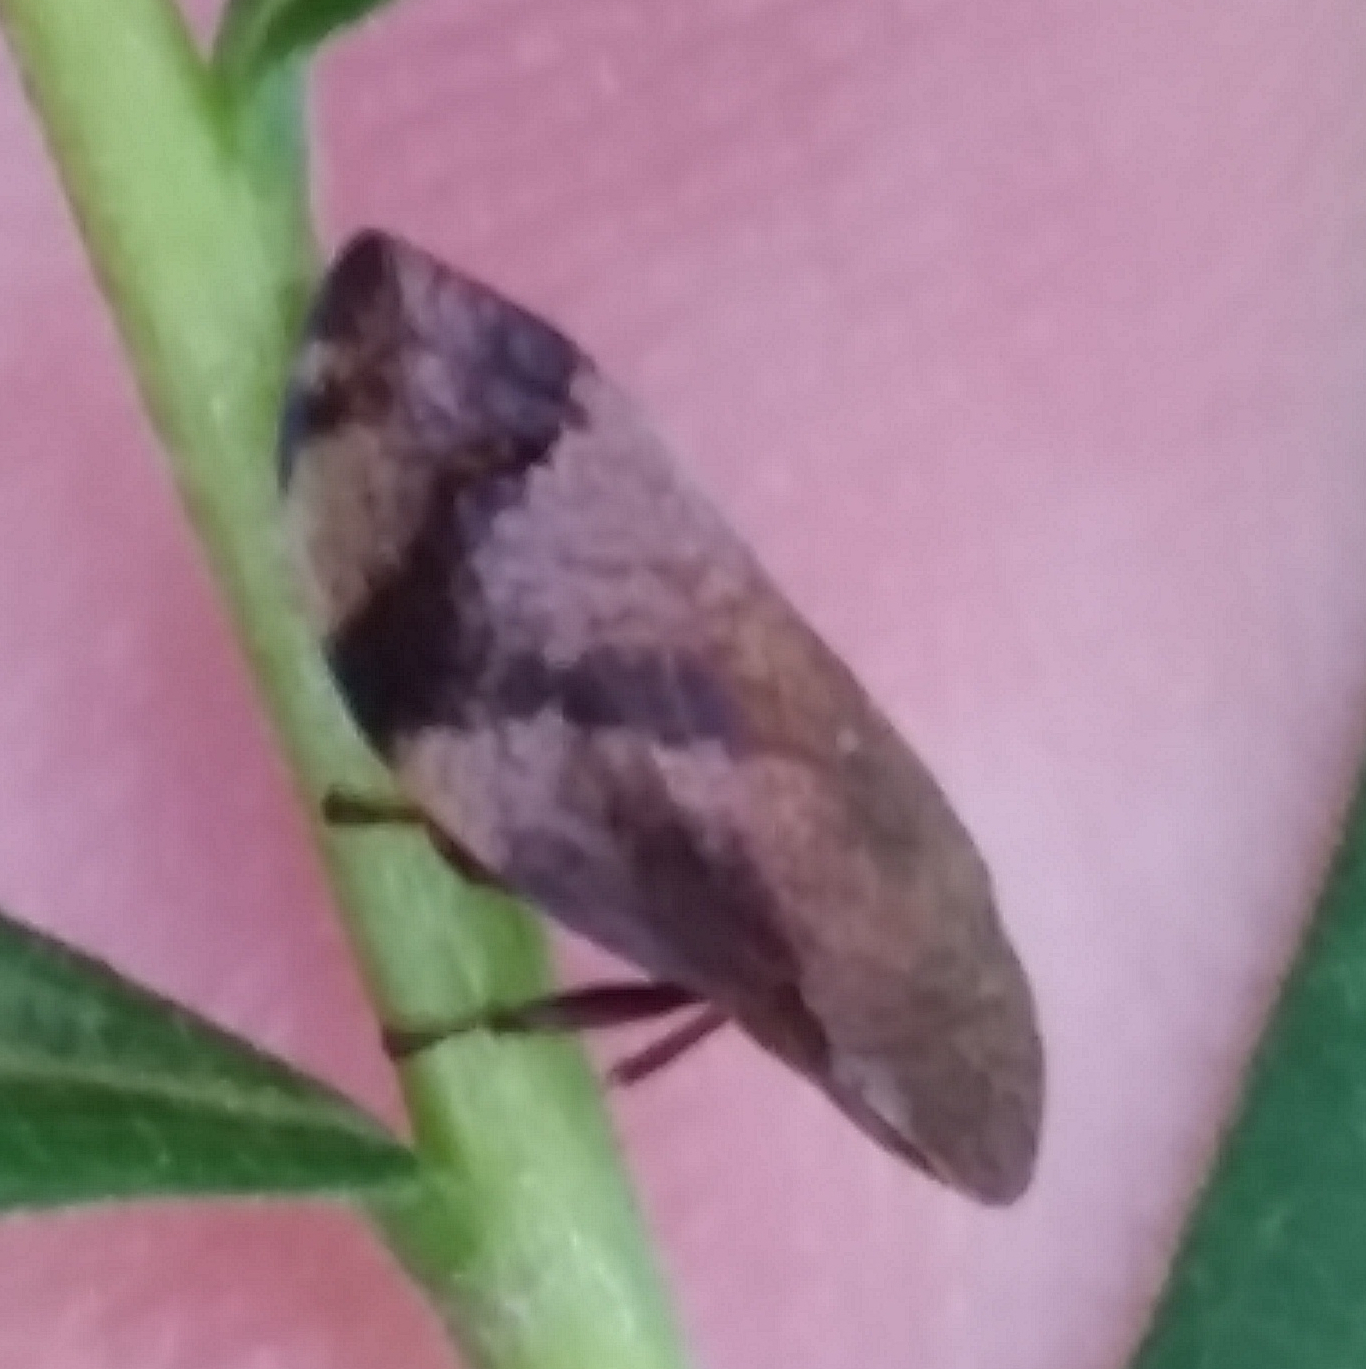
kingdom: Animalia
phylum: Arthropoda
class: Insecta
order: Hemiptera
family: Aphrophoridae
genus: Lepyronia
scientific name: Lepyronia quadrangularis
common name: Diamond-backed spittlebug
